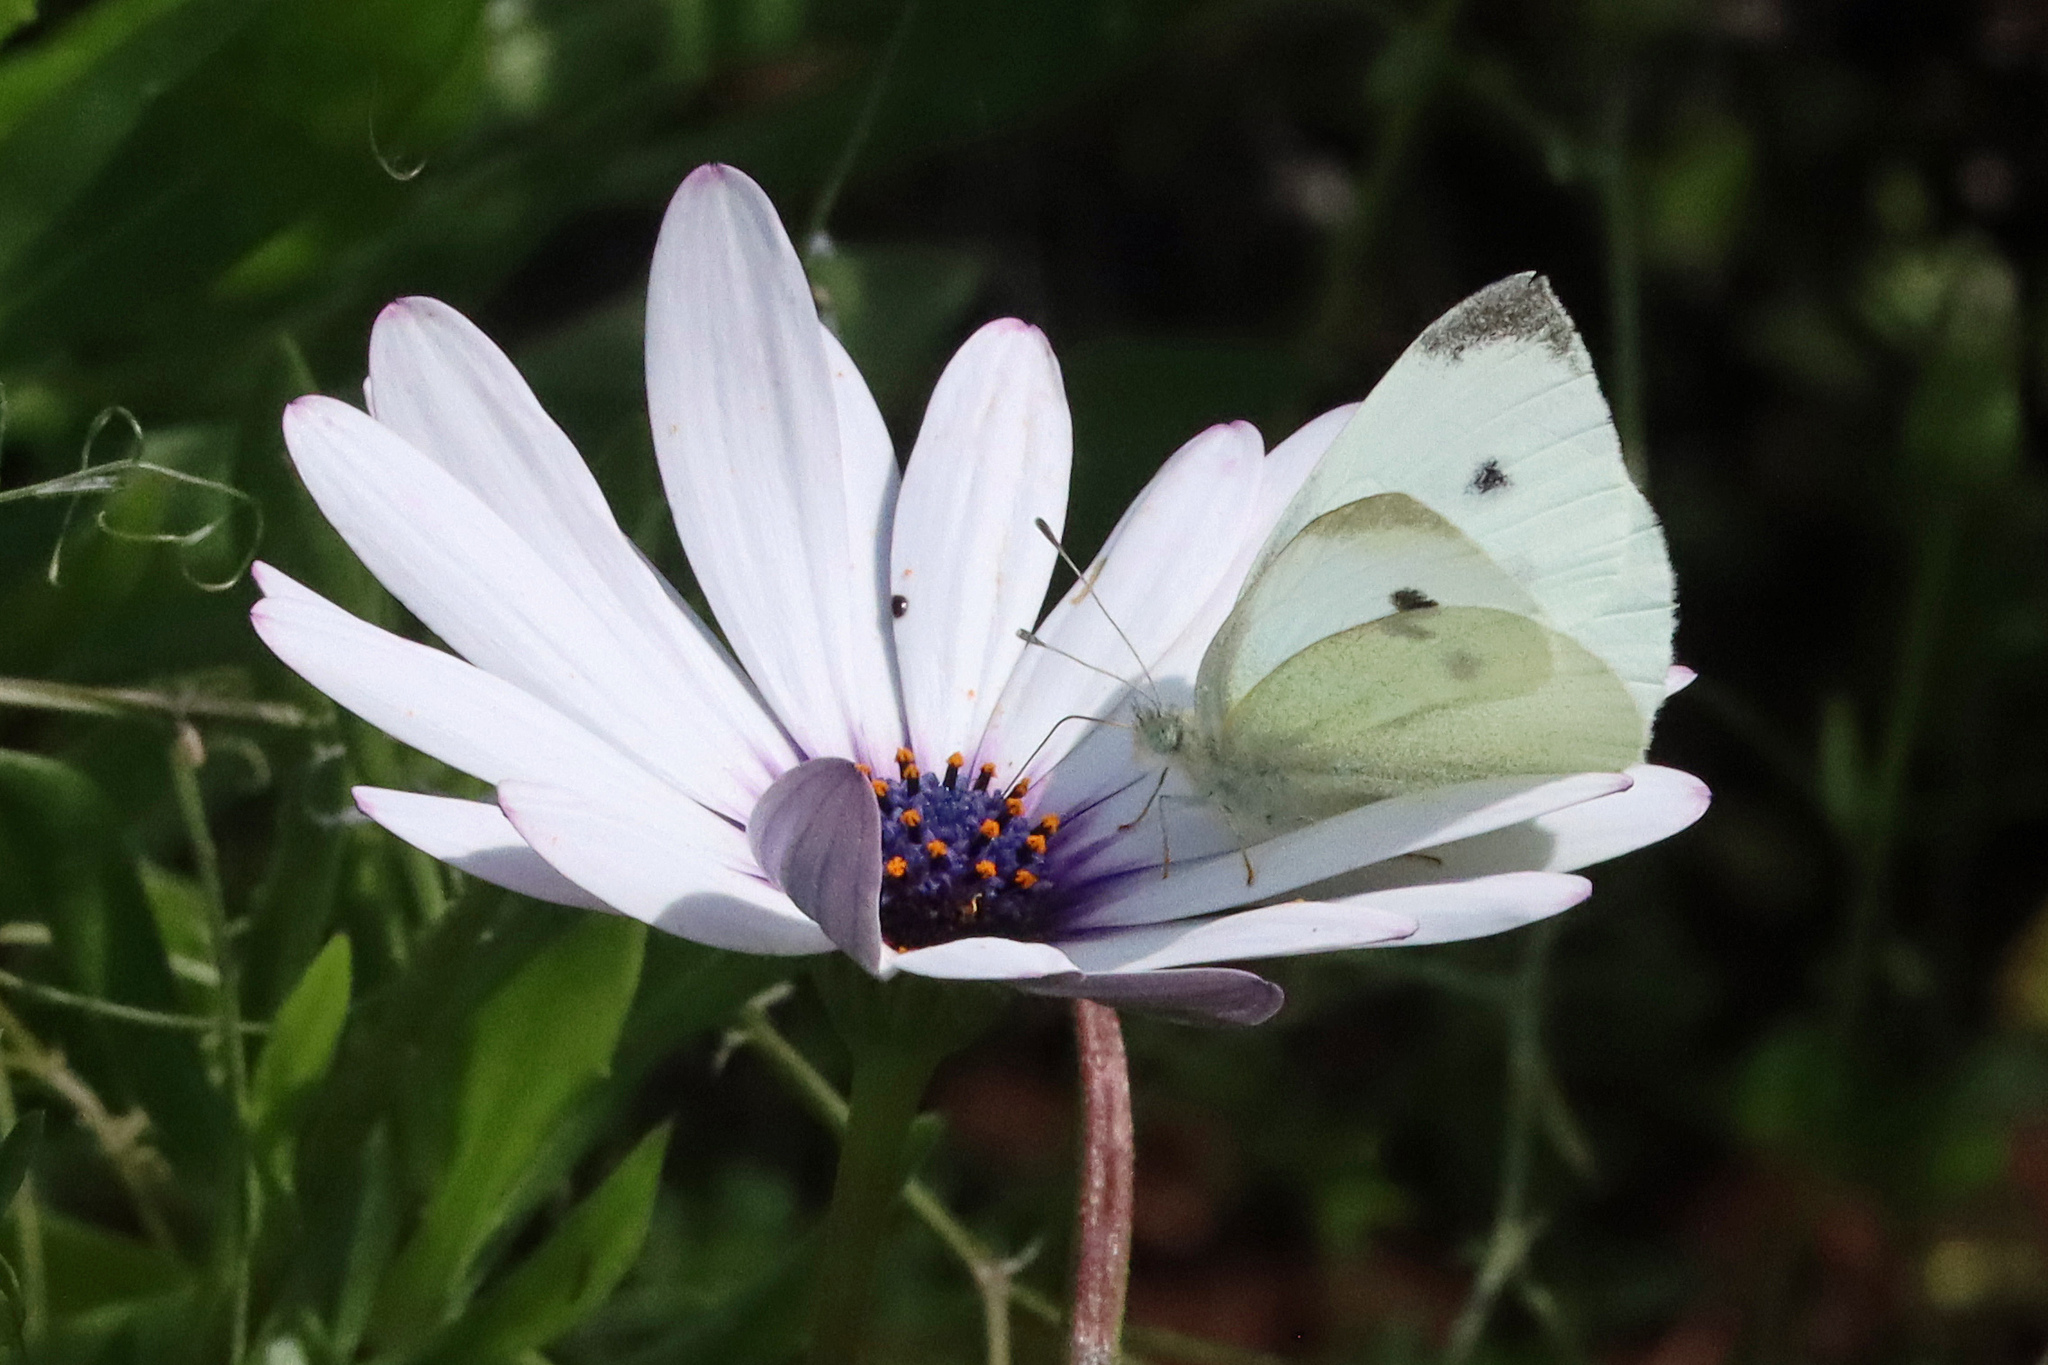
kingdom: Animalia
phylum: Arthropoda
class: Insecta
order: Lepidoptera
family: Pieridae
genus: Pieris
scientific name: Pieris rapae
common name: Small white
